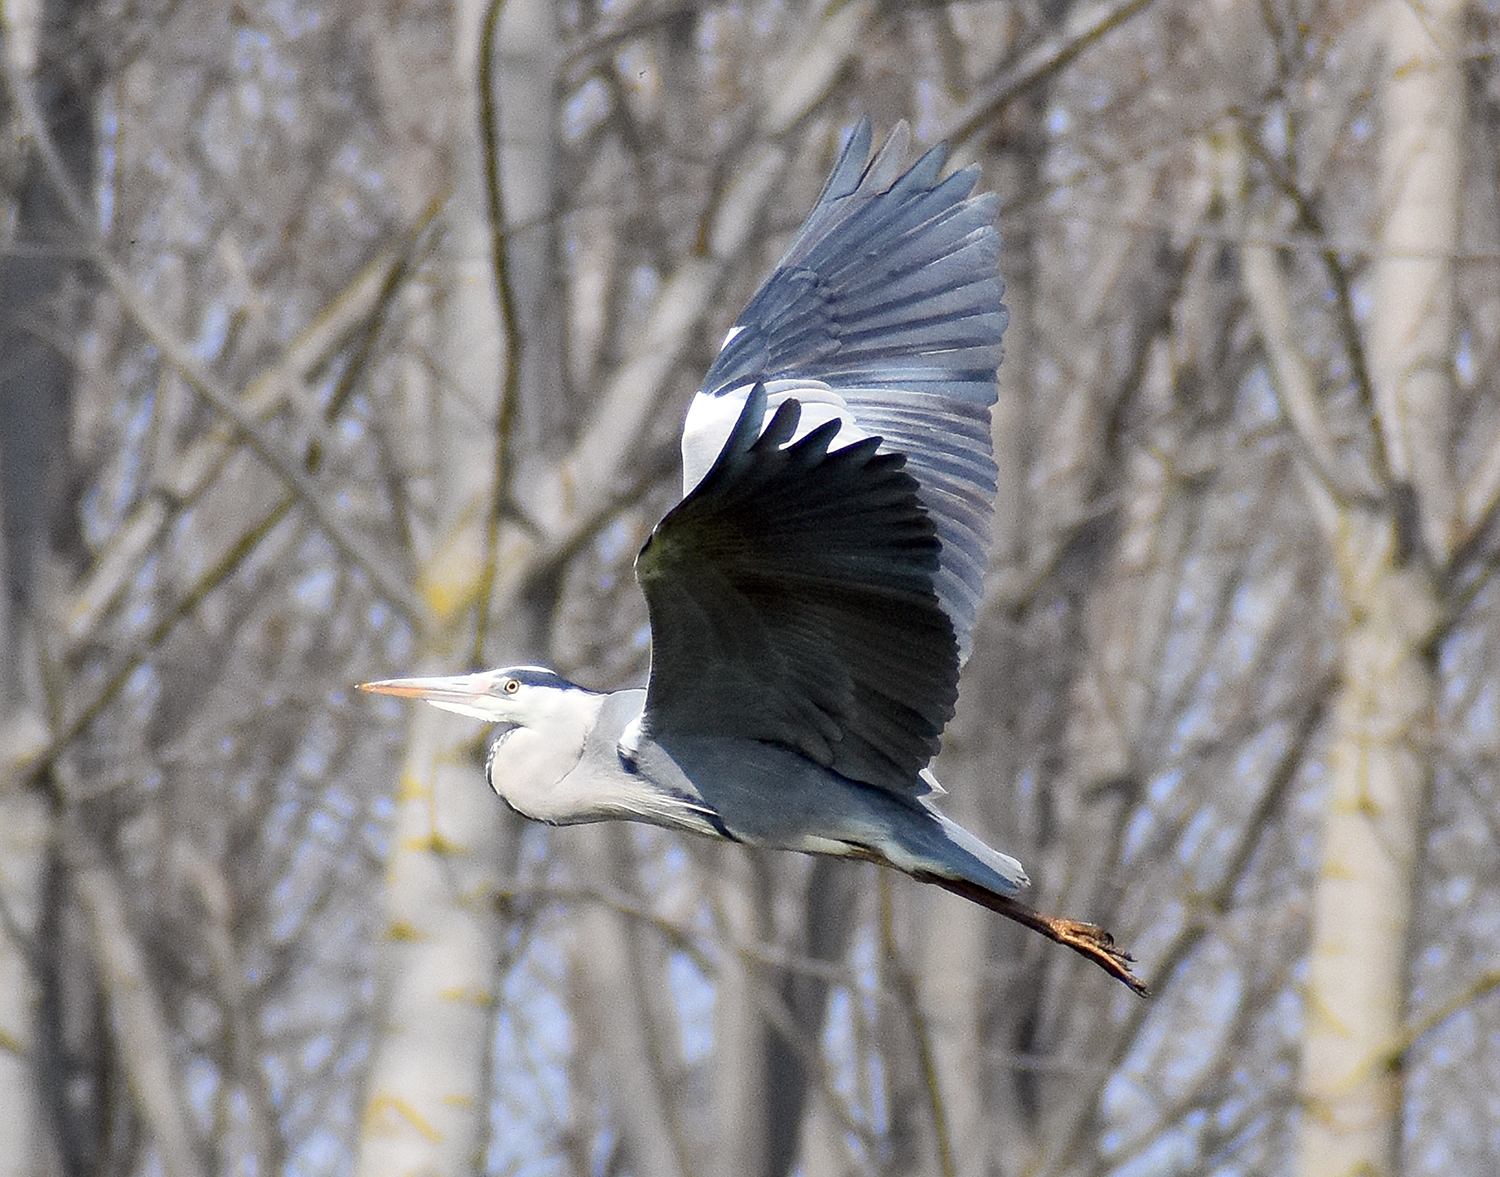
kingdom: Animalia
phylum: Chordata
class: Aves
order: Pelecaniformes
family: Ardeidae
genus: Ardea
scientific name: Ardea cinerea
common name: Grey heron
